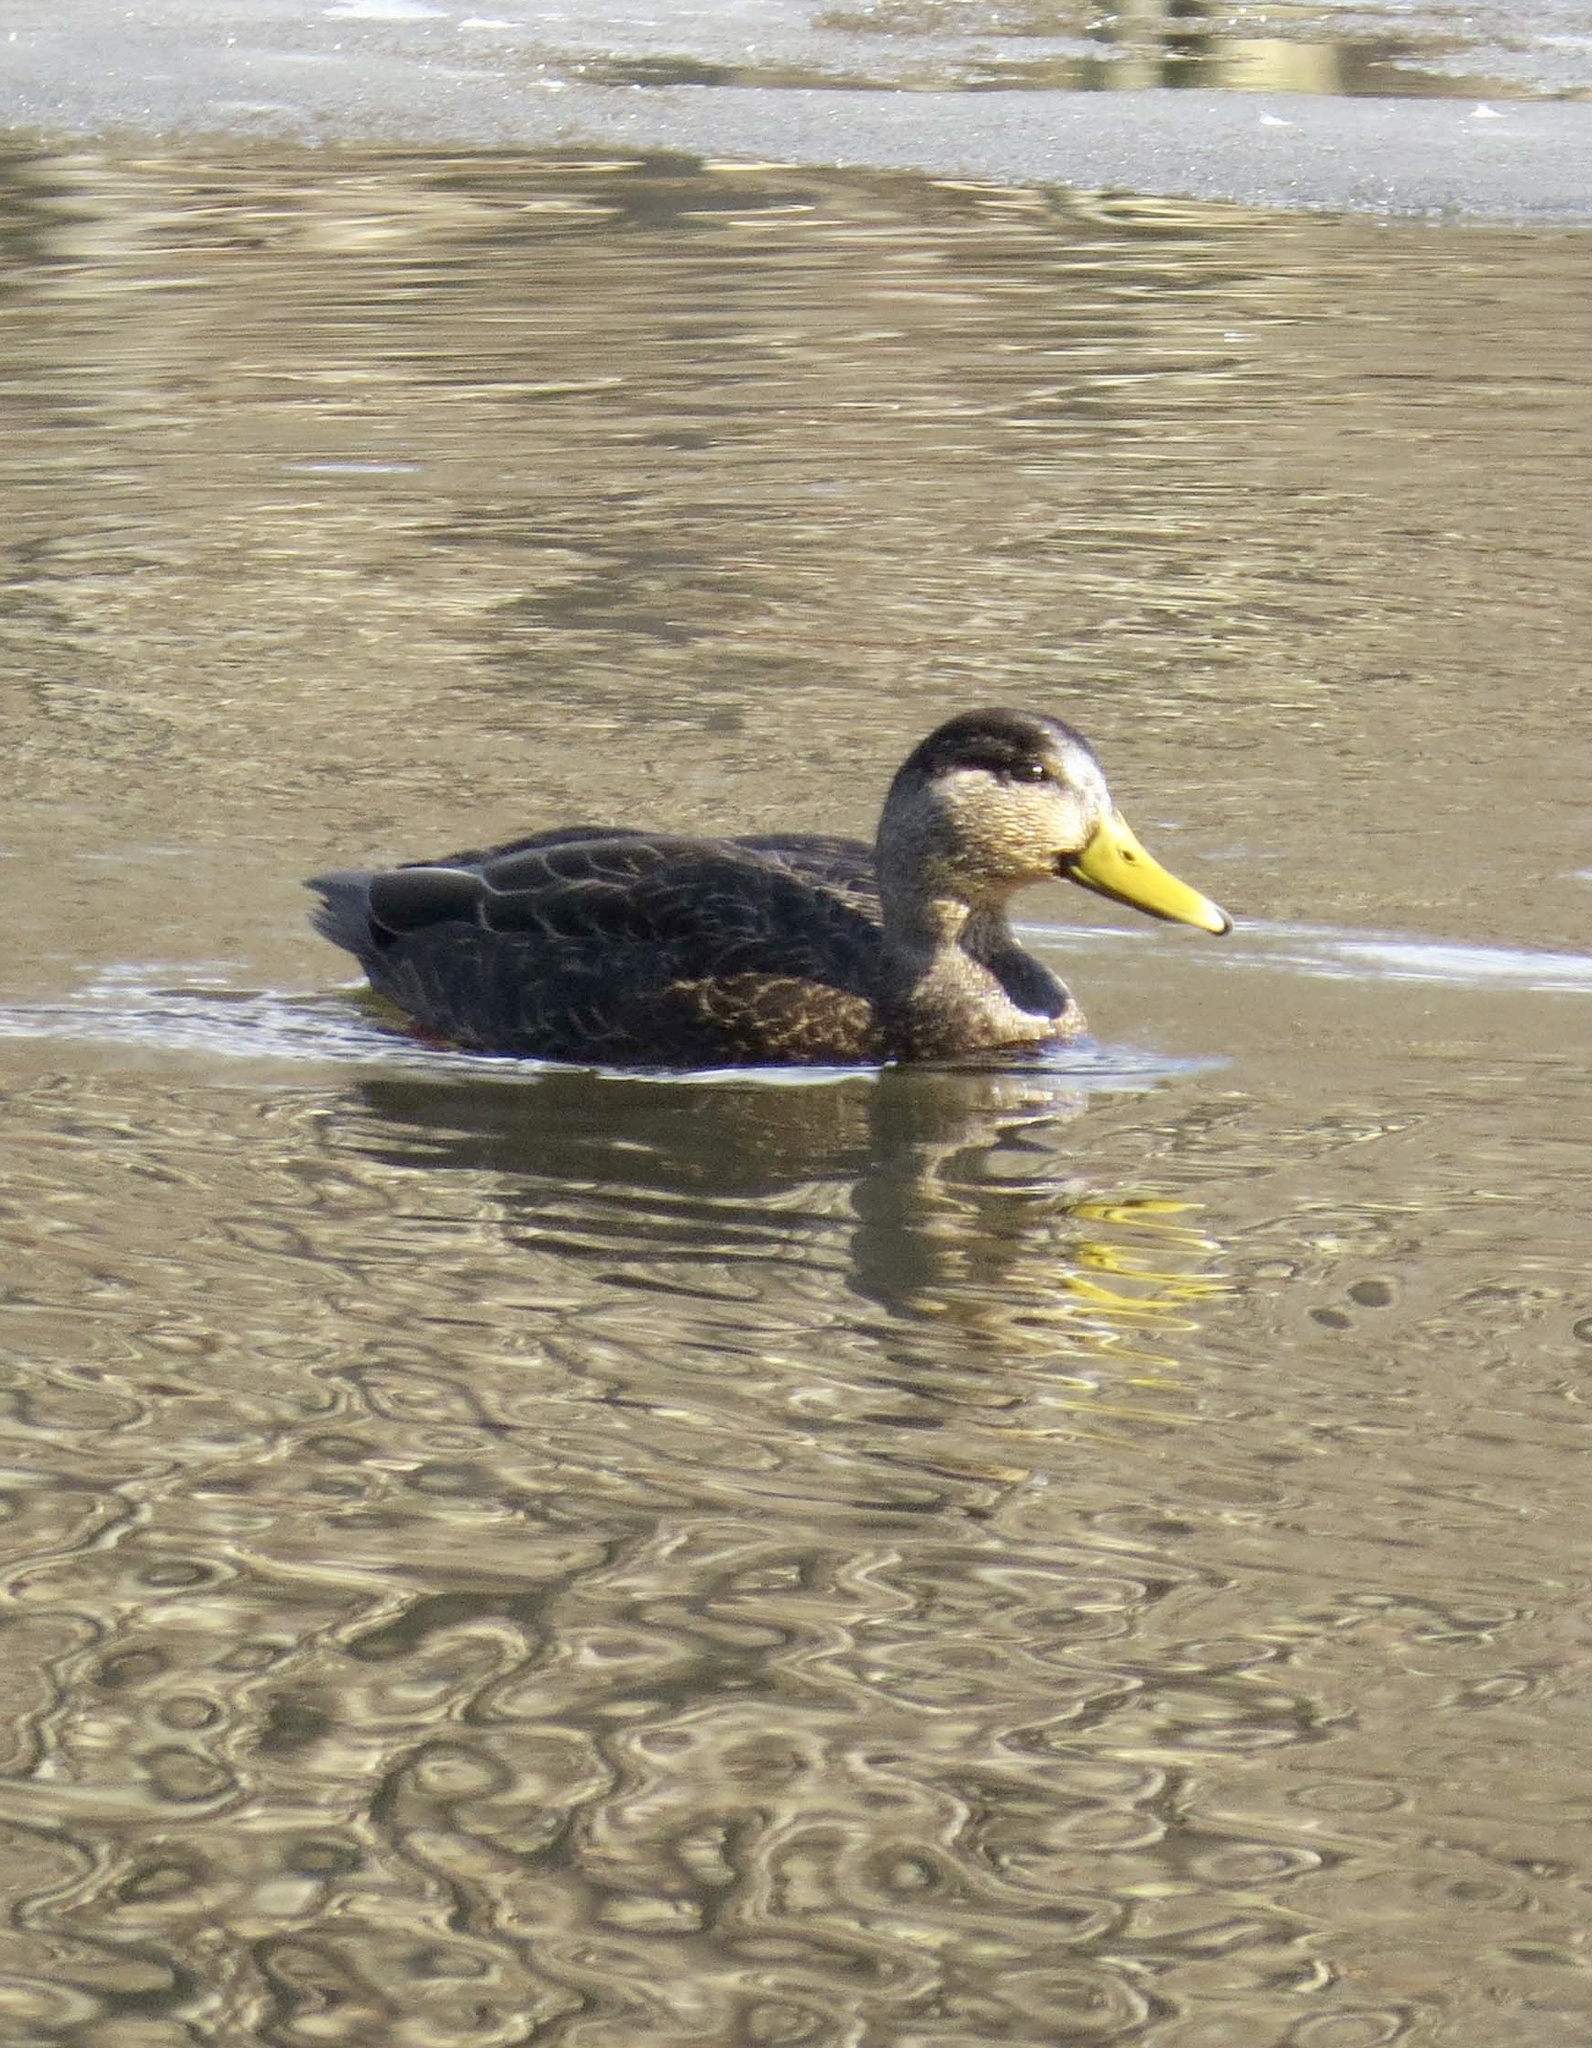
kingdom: Animalia
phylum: Chordata
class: Aves
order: Anseriformes
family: Anatidae
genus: Anas
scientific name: Anas rubripes
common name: American black duck
